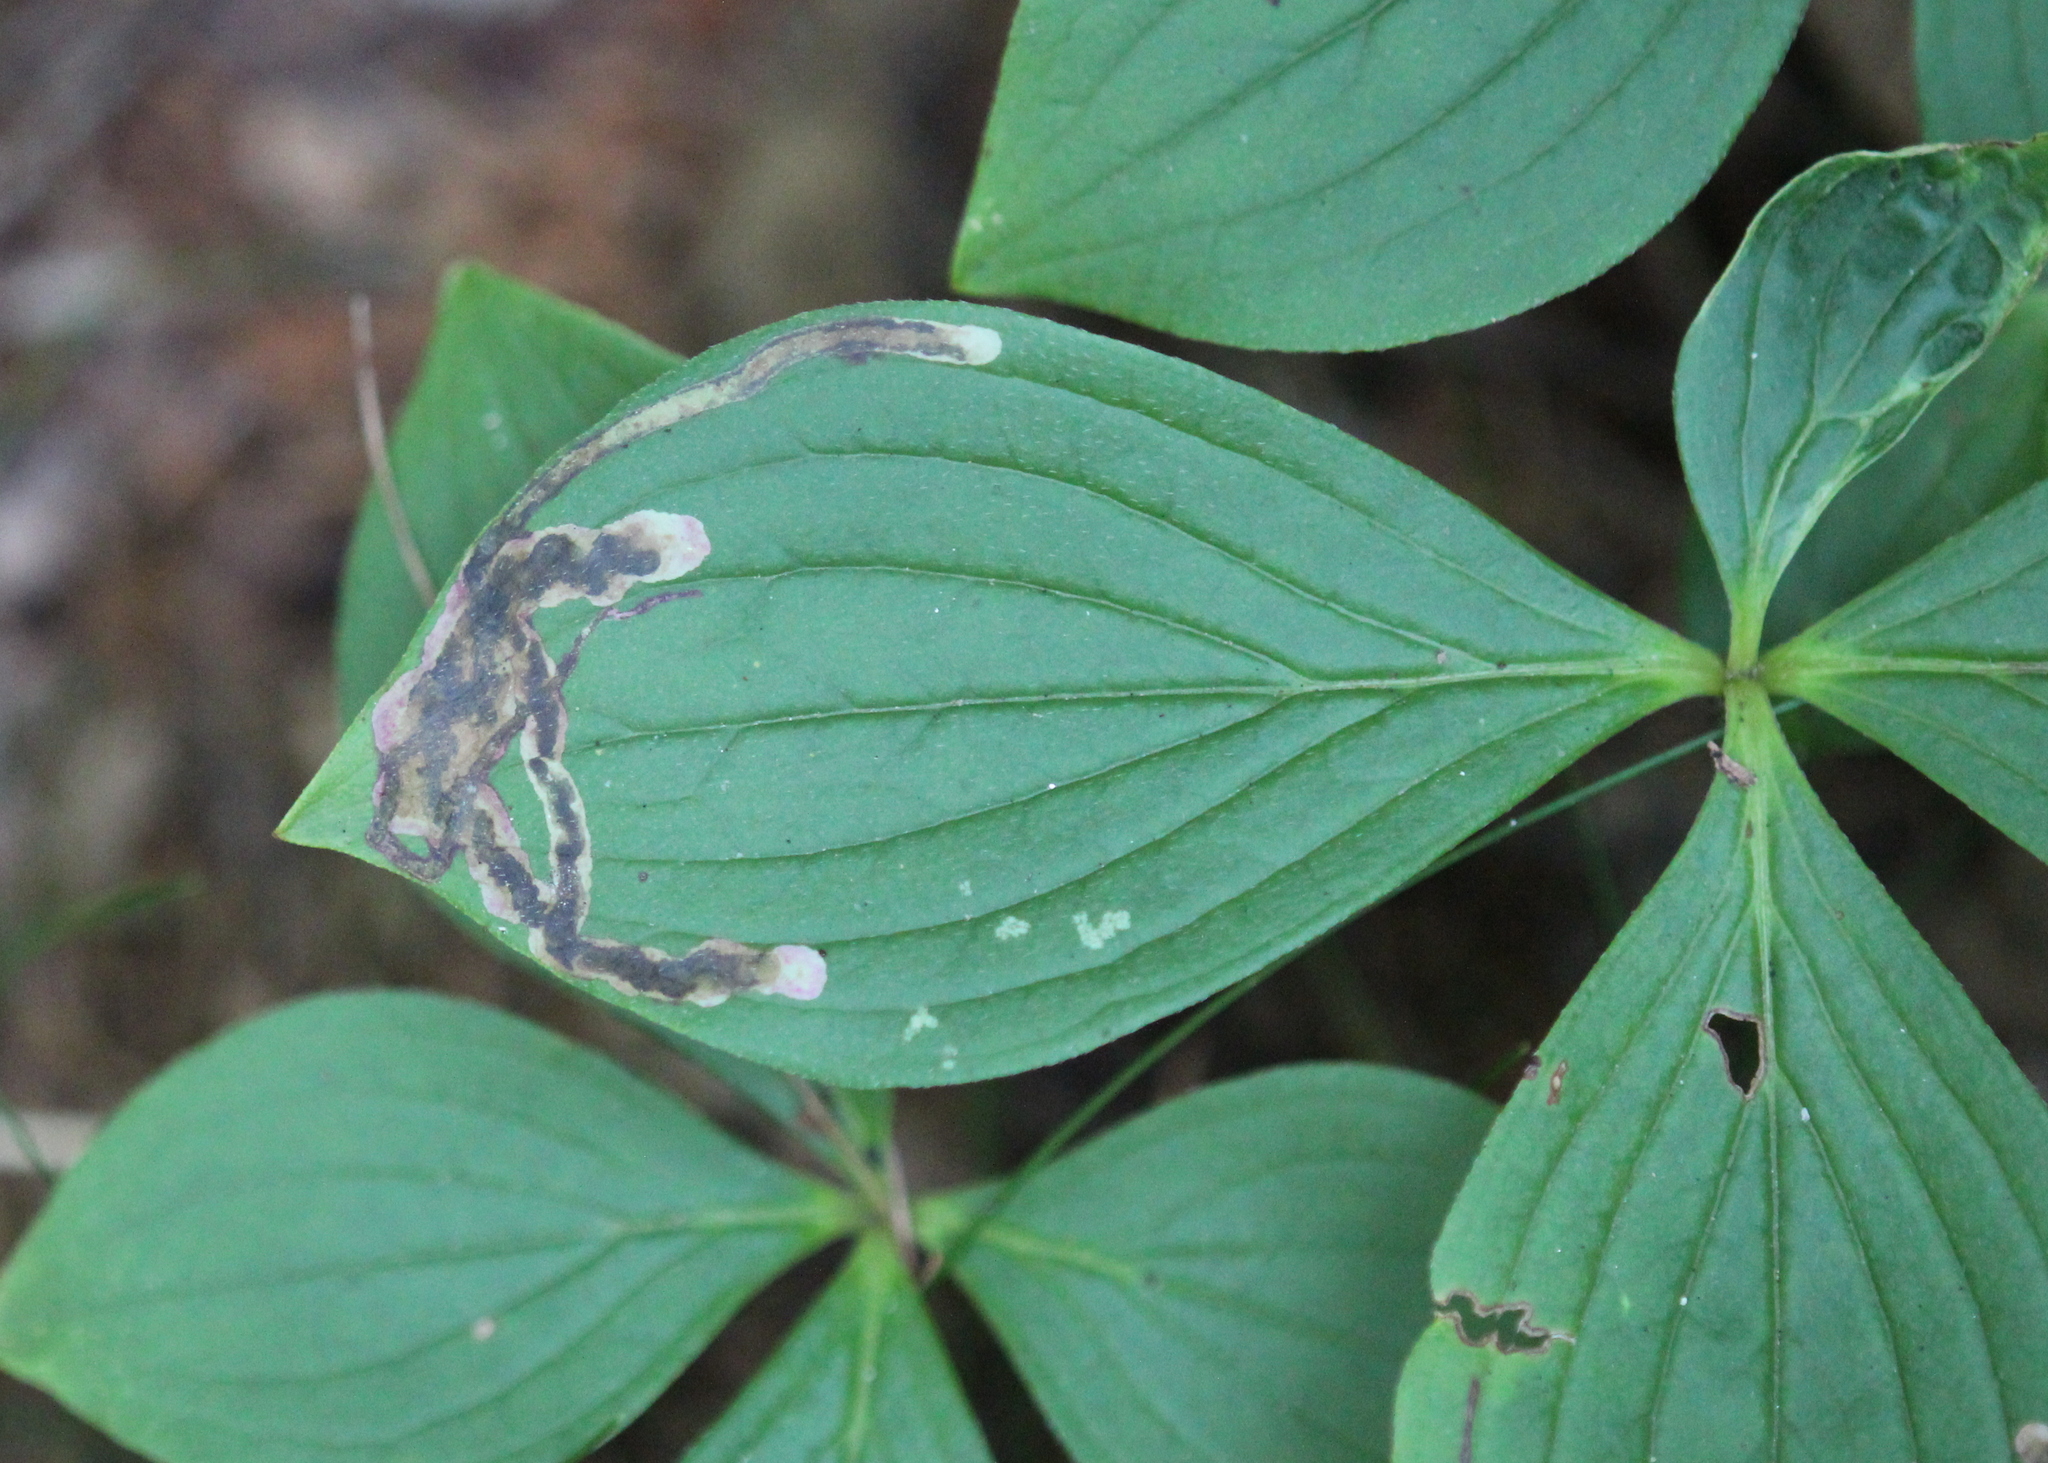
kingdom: Plantae
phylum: Tracheophyta
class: Magnoliopsida
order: Cornales
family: Cornaceae
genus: Cornus
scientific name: Cornus canadensis
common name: Creeping dogwood
